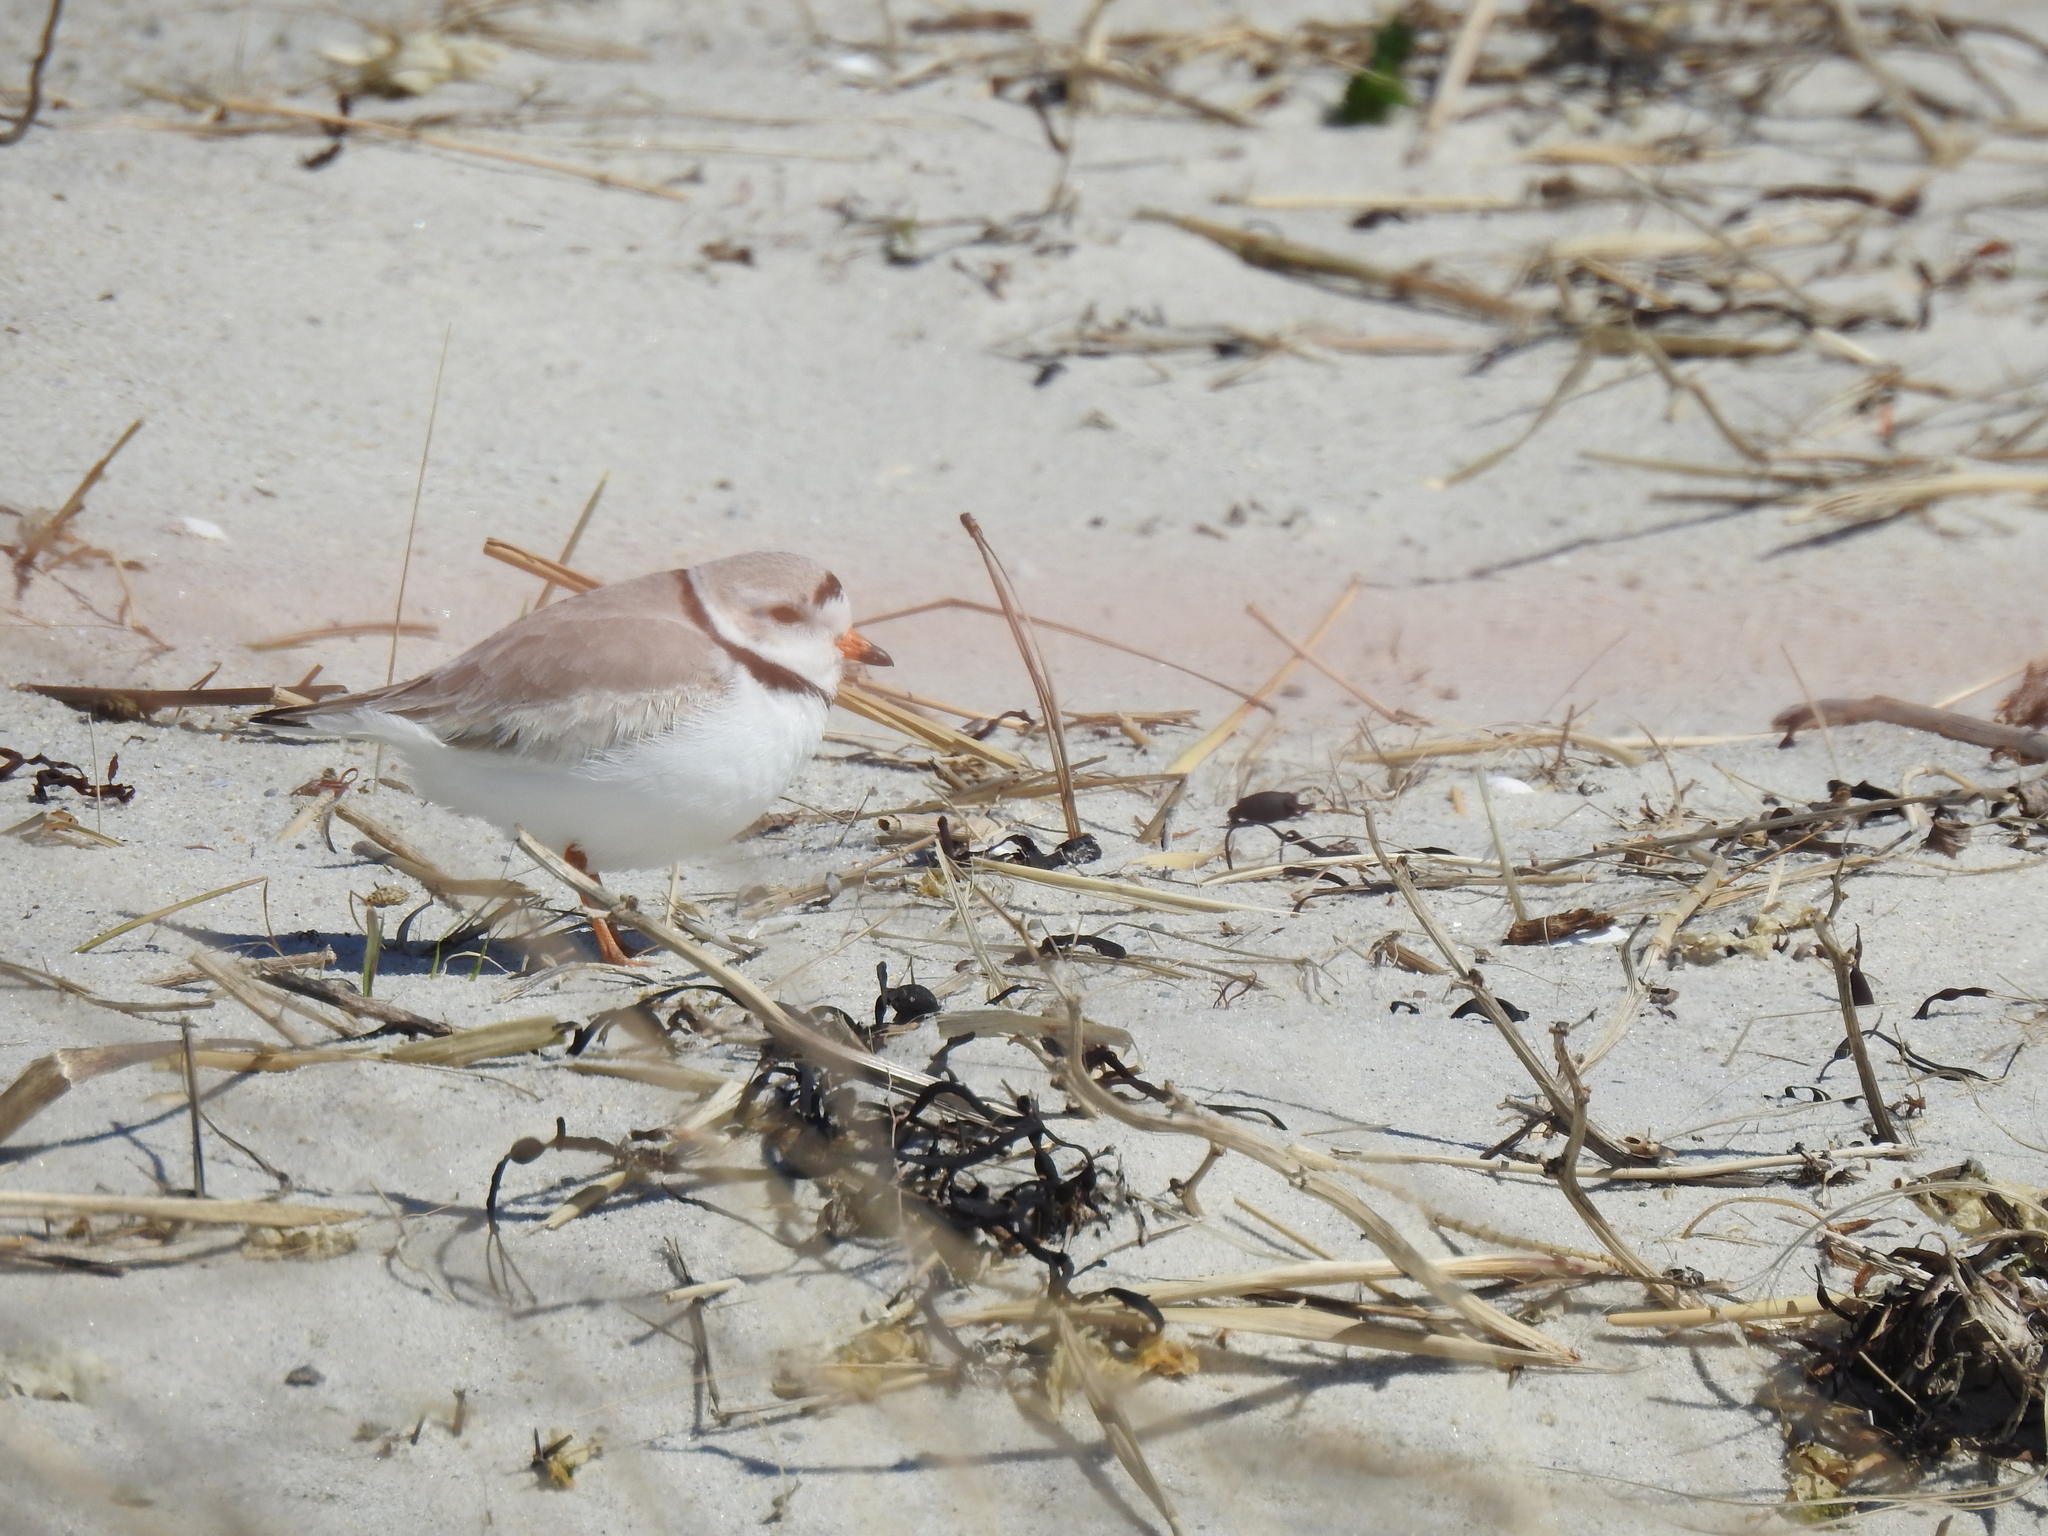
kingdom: Animalia
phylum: Chordata
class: Aves
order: Charadriiformes
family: Charadriidae
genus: Charadrius
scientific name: Charadrius melodus
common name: Piping plover
